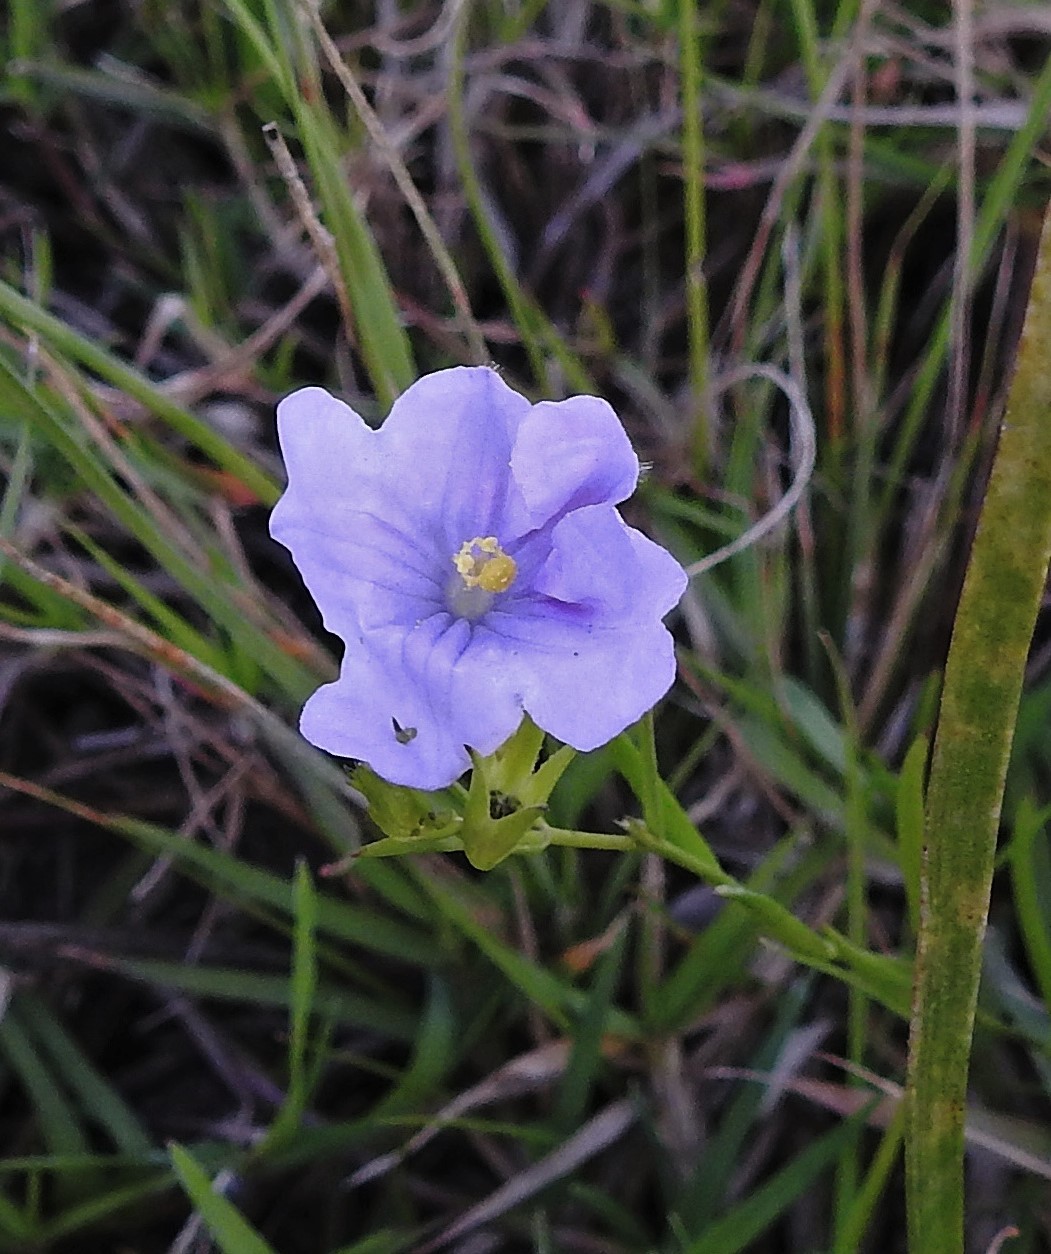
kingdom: Plantae
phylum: Tracheophyta
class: Magnoliopsida
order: Solanales
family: Solanaceae
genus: Nierembergia
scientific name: Nierembergia aristata
